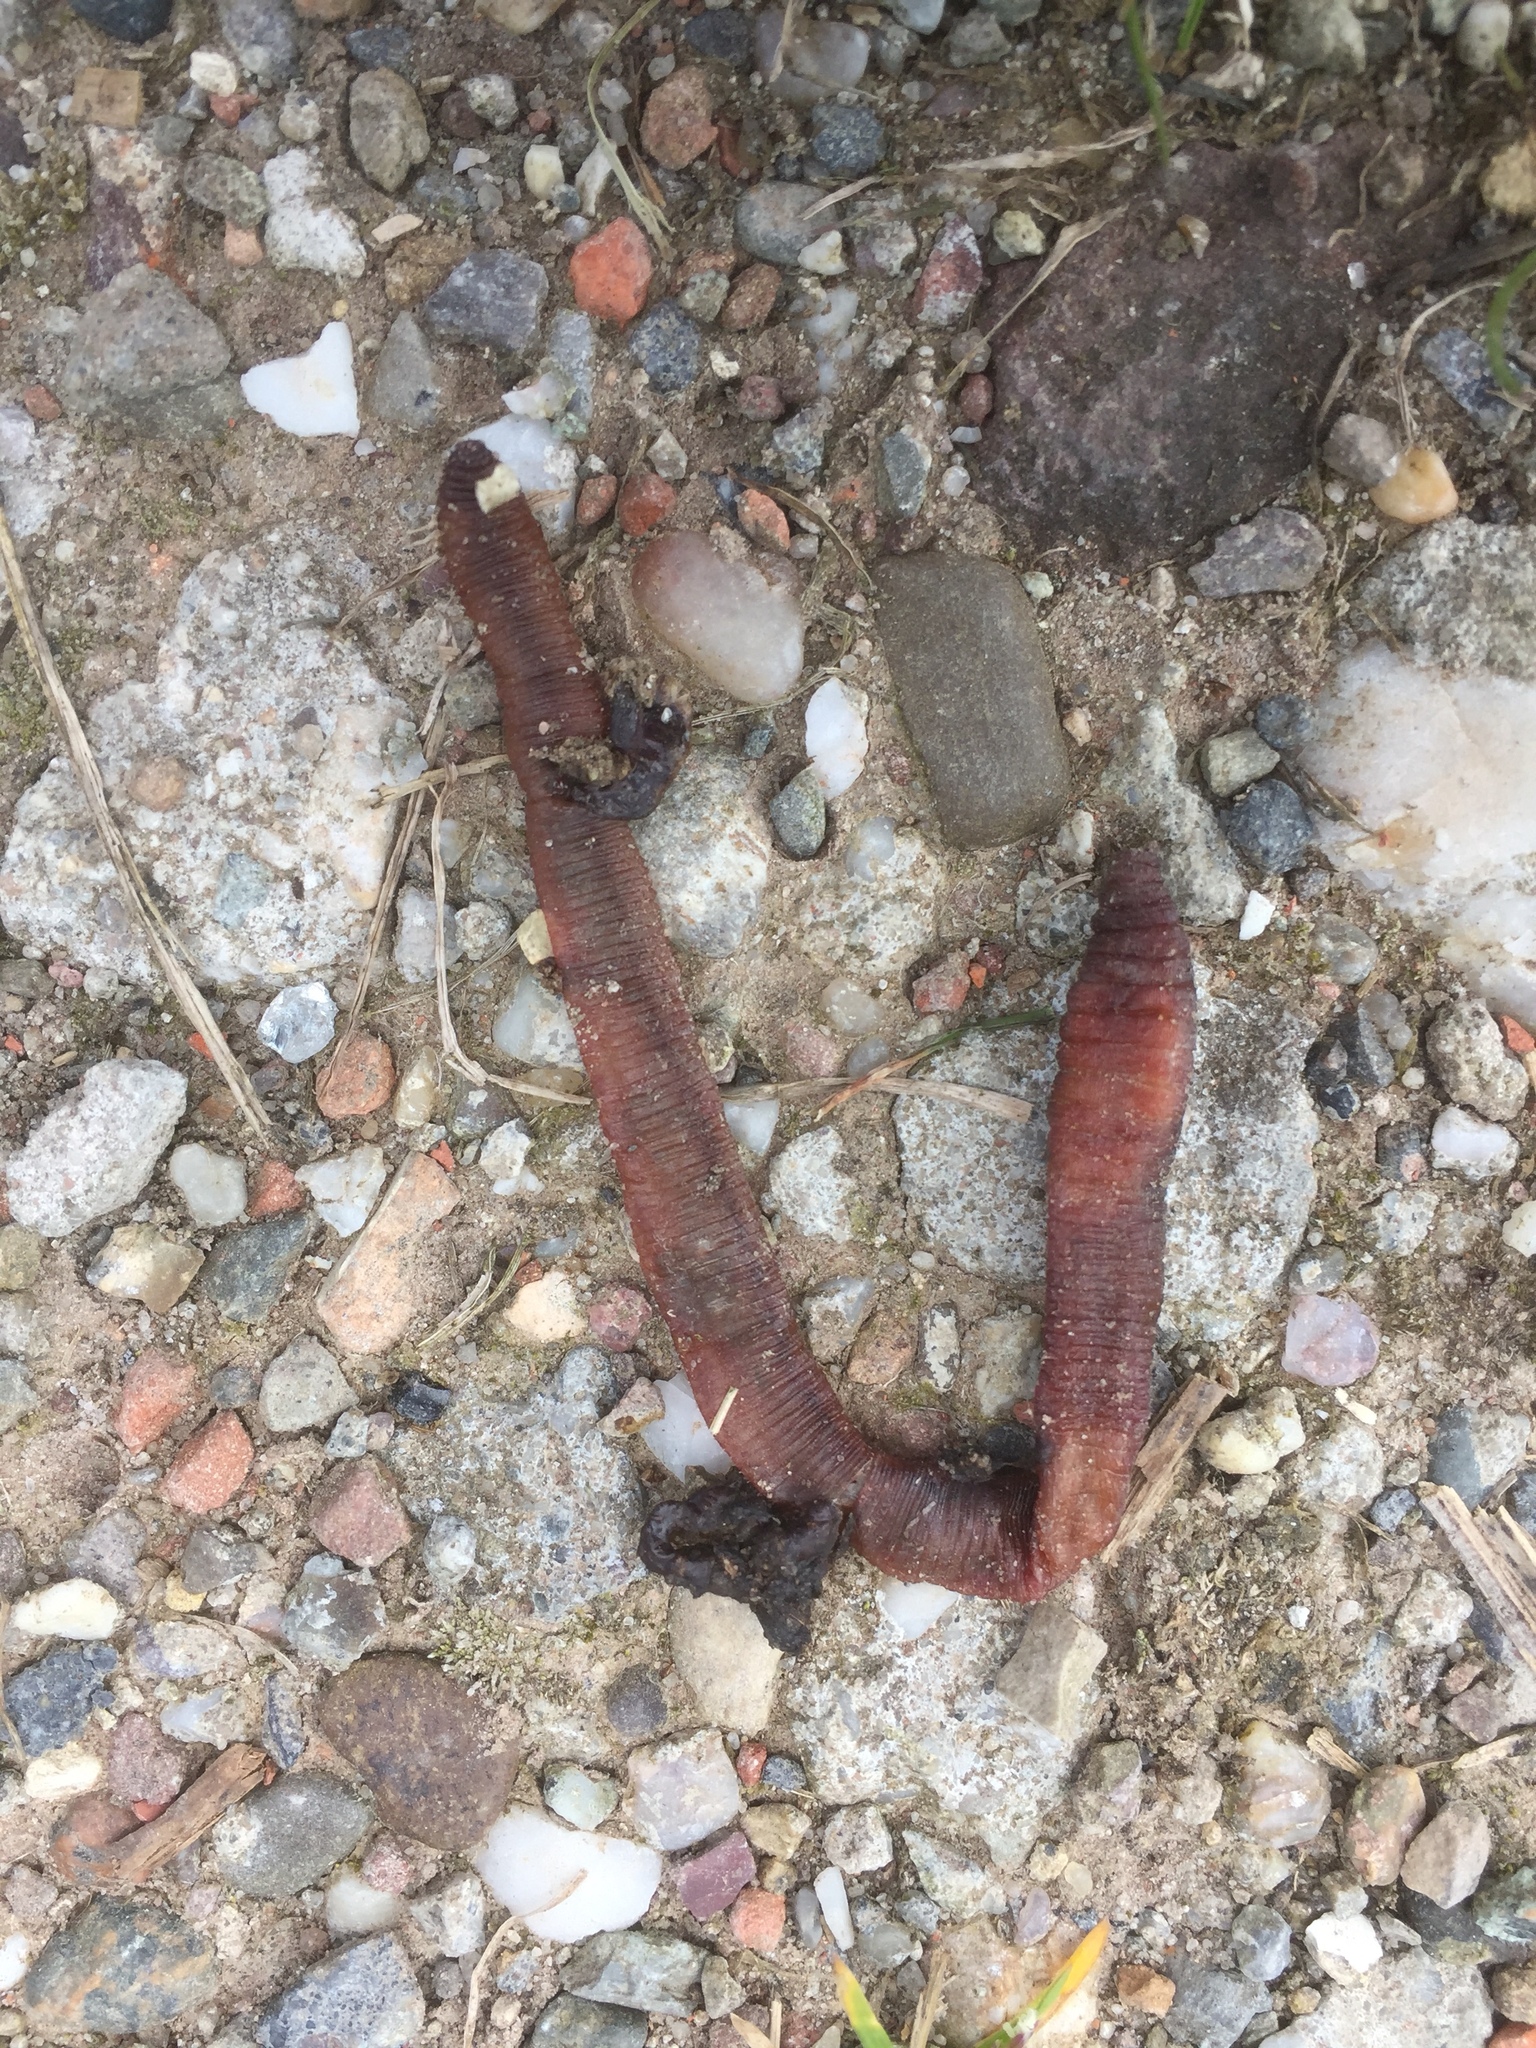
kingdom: Animalia
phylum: Annelida
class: Clitellata
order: Crassiclitellata
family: Lumbricidae
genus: Lumbricus
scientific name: Lumbricus terrestris
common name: Common earthworm
